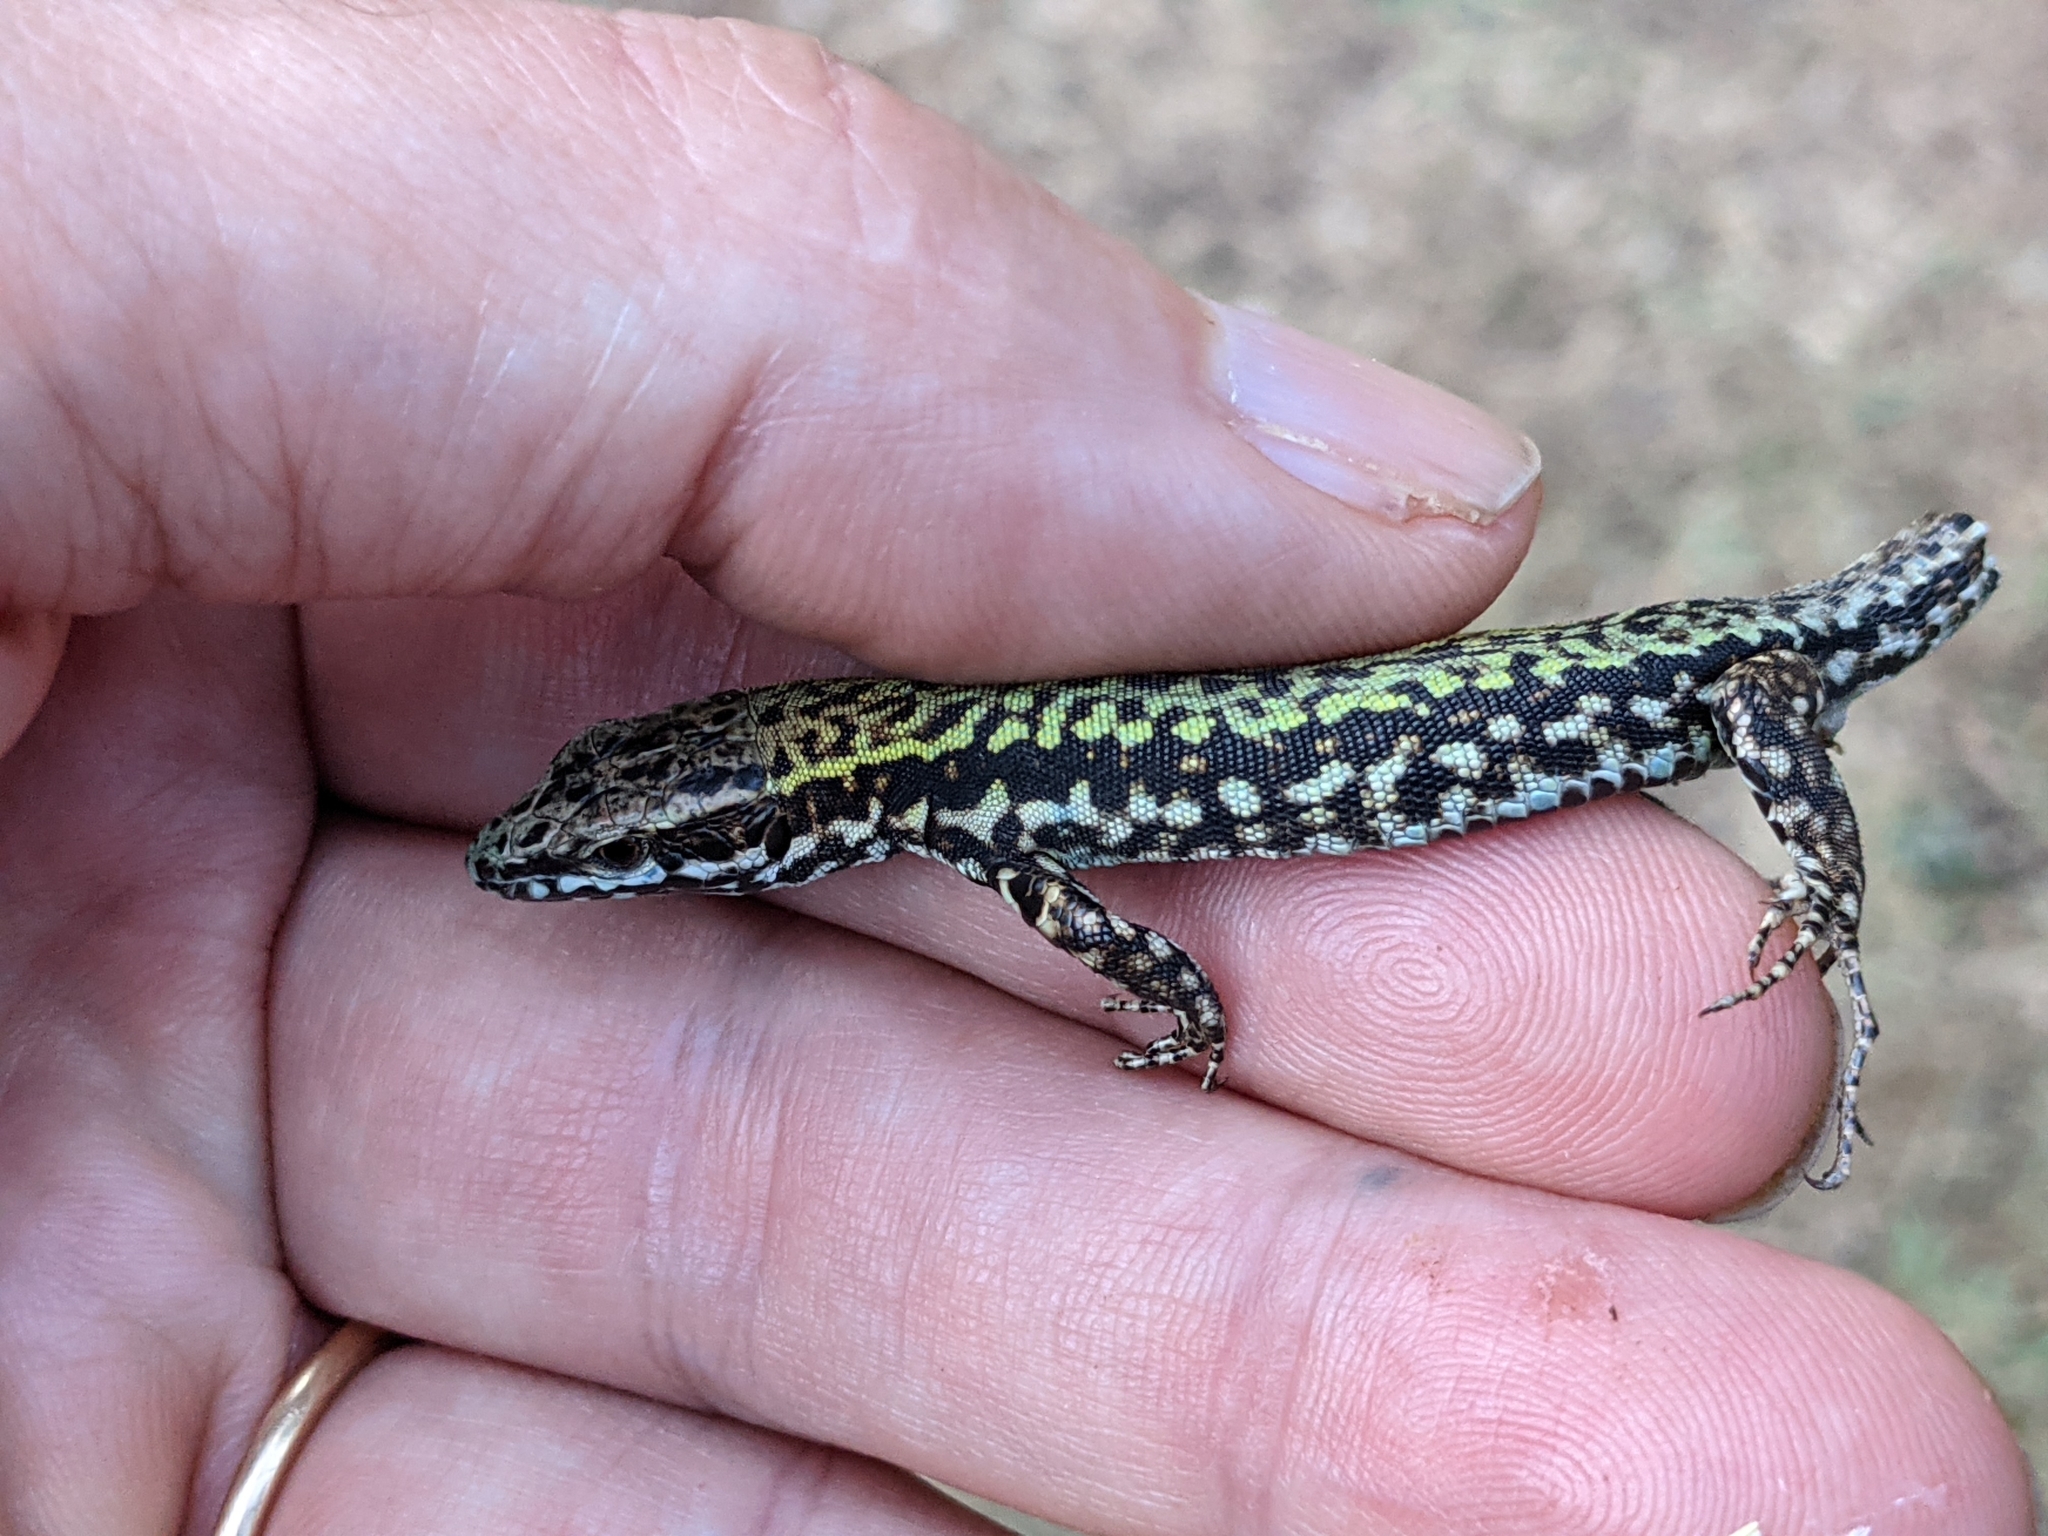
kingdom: Animalia
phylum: Chordata
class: Squamata
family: Lacertidae
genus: Podarcis
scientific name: Podarcis muralis
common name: Common wall lizard
